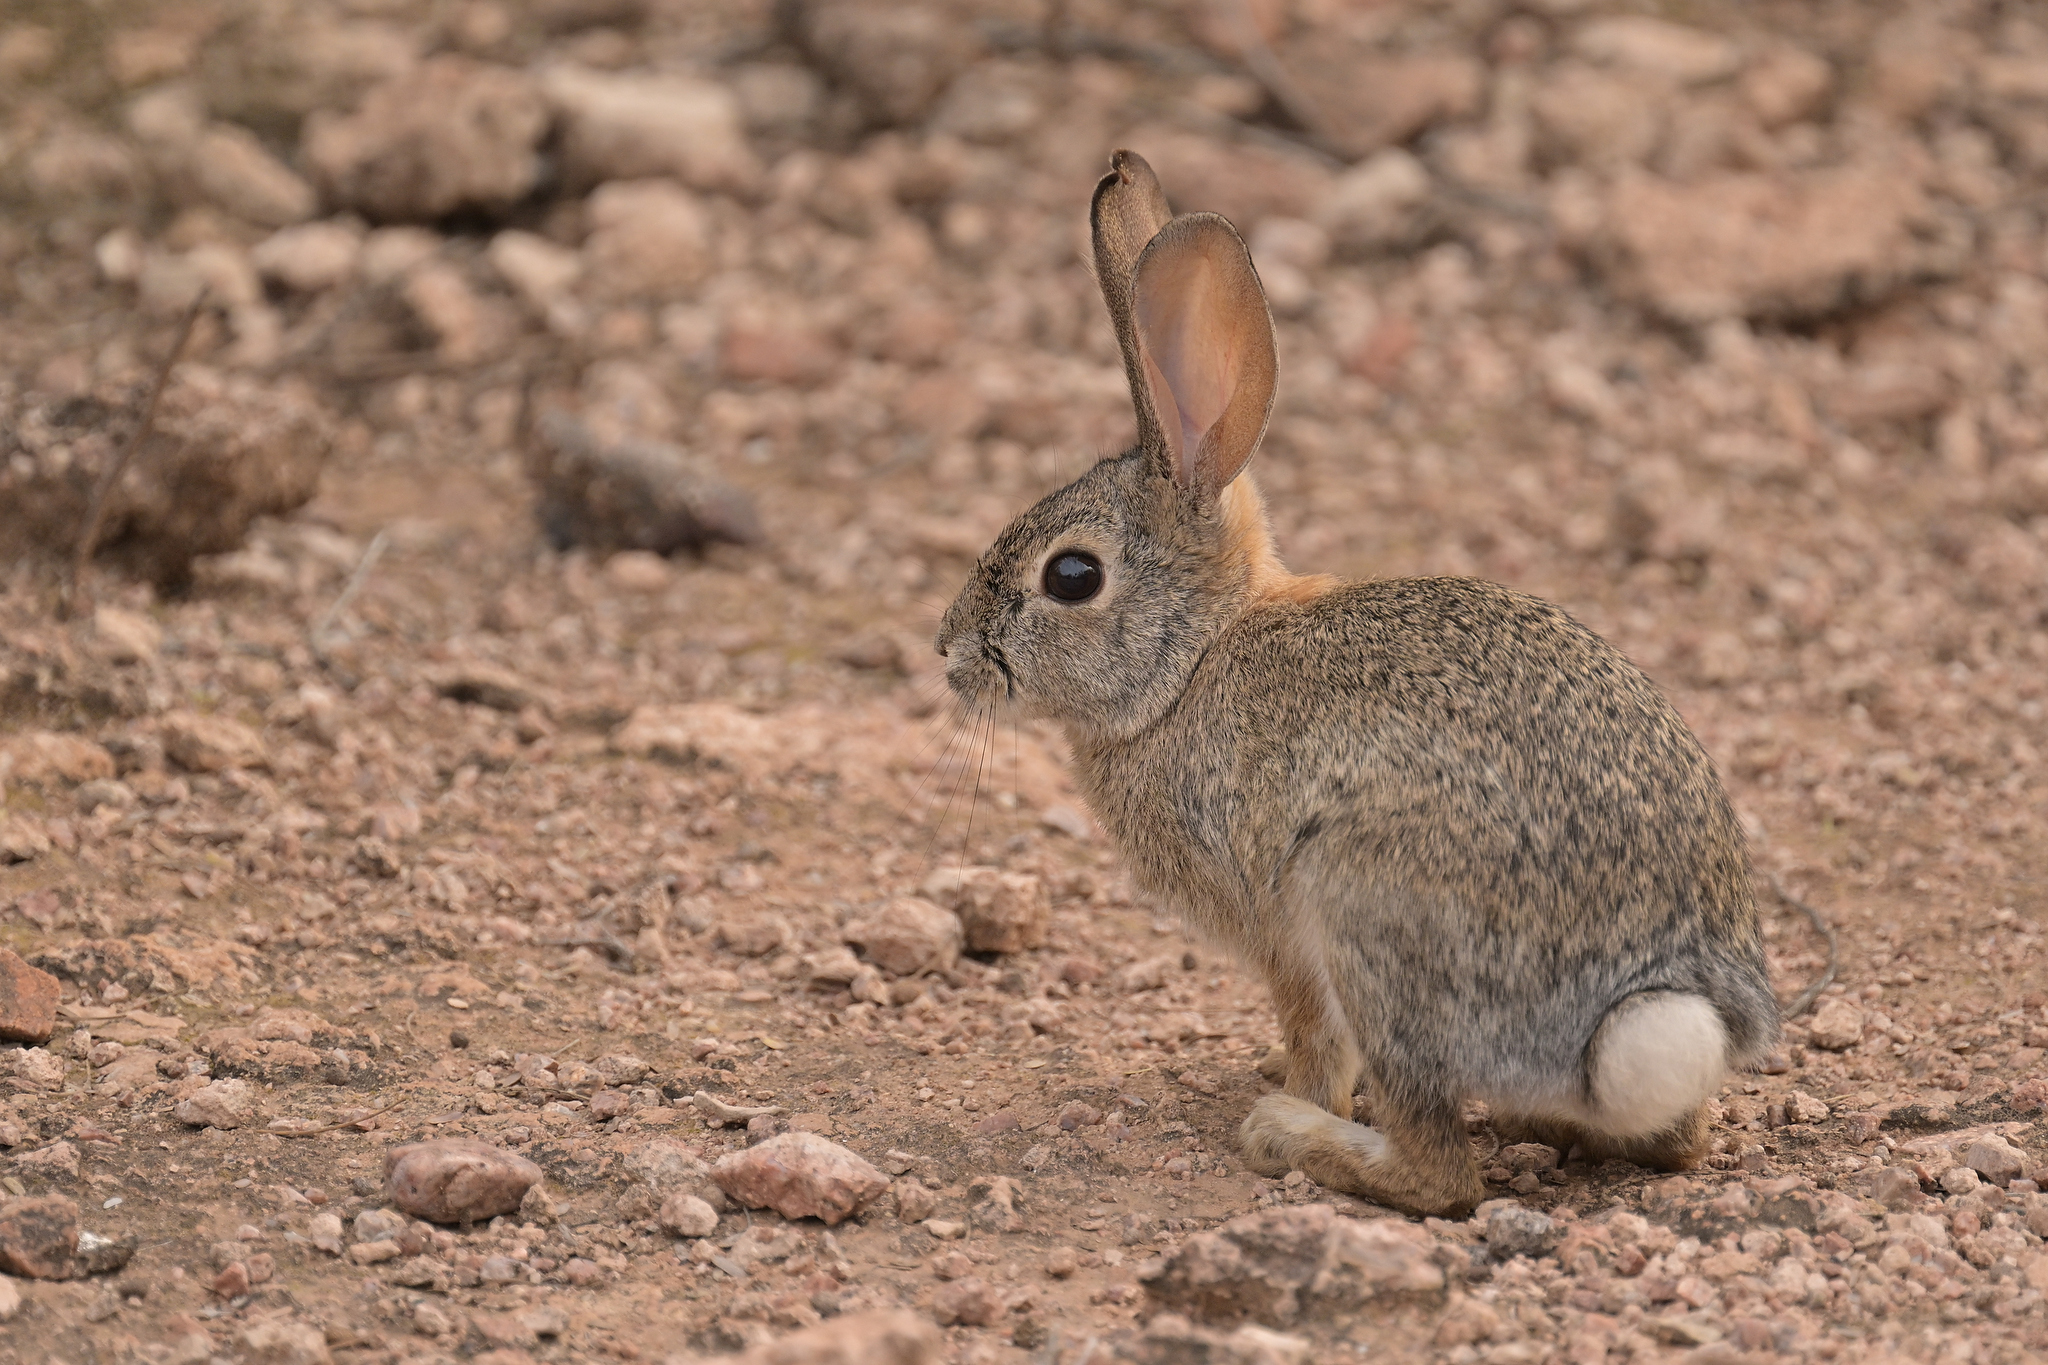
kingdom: Animalia
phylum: Chordata
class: Mammalia
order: Lagomorpha
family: Leporidae
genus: Sylvilagus
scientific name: Sylvilagus audubonii
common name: Desert cottontail
